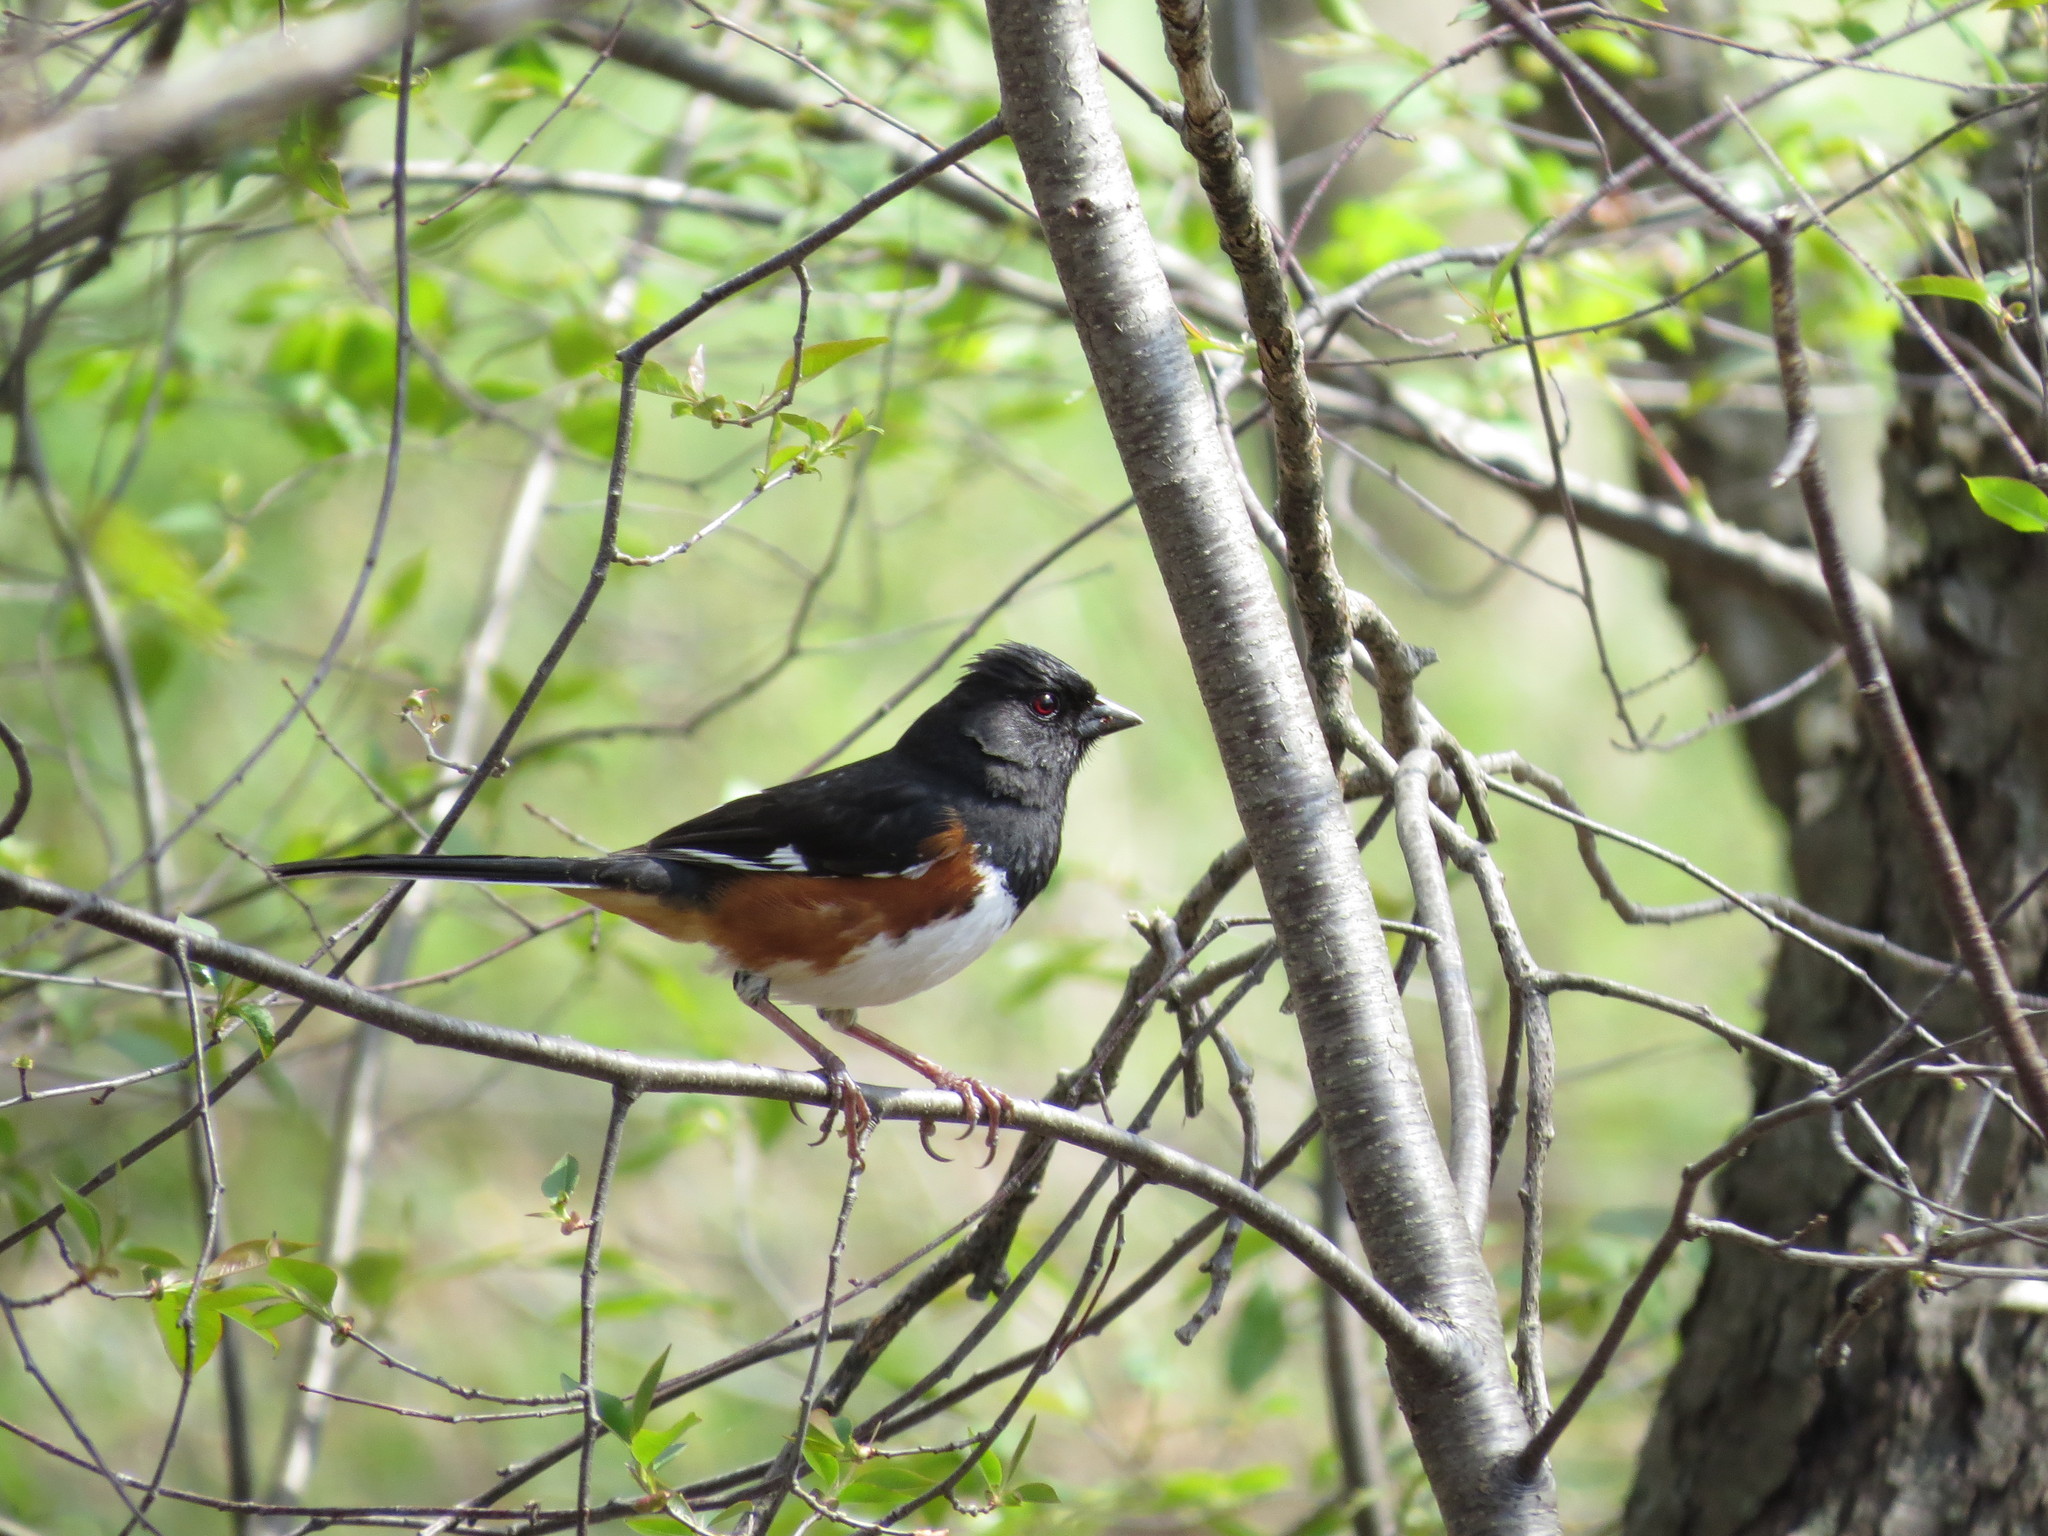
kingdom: Animalia
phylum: Chordata
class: Aves
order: Passeriformes
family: Passerellidae
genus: Pipilo
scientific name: Pipilo erythrophthalmus
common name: Eastern towhee
